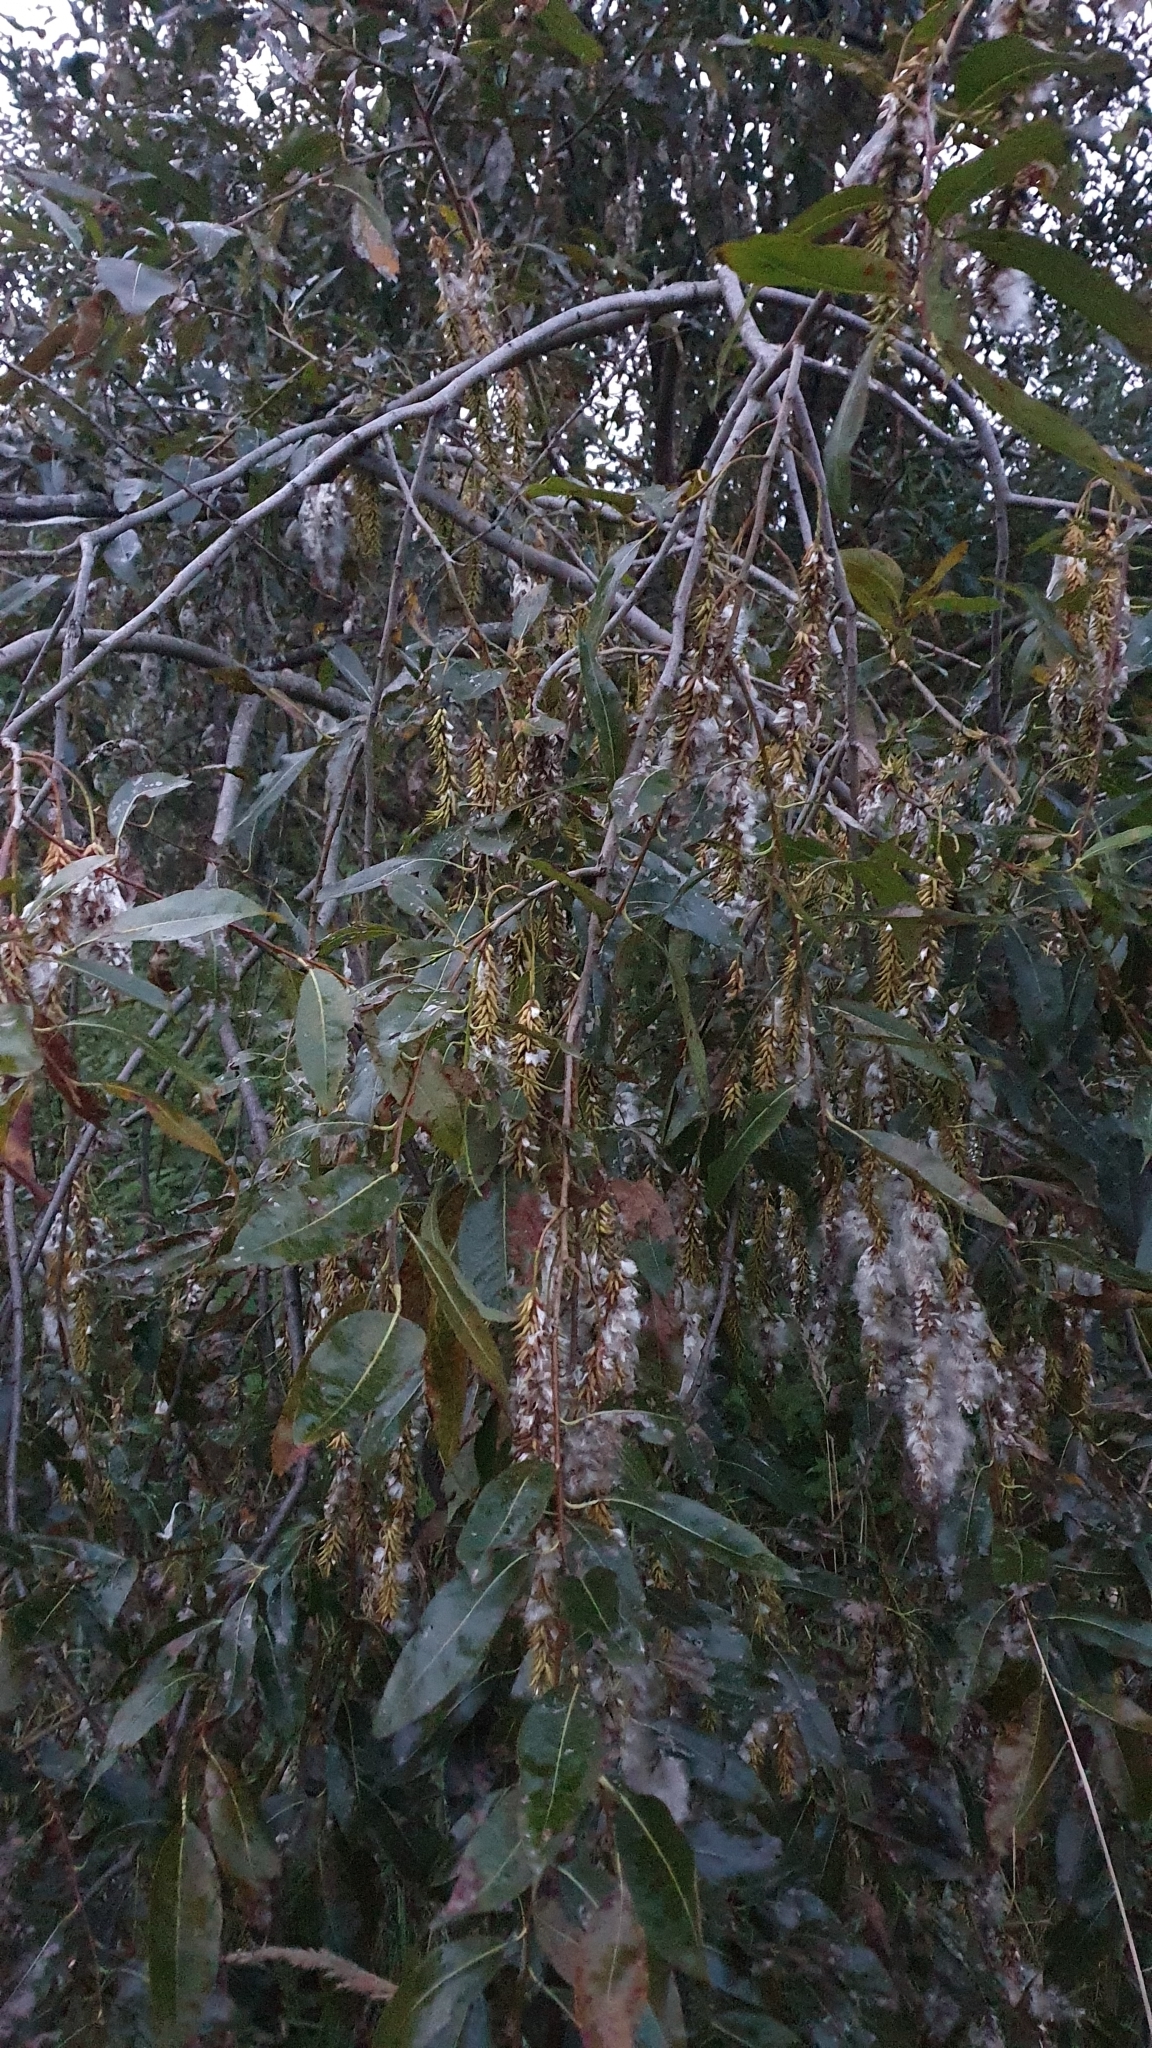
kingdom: Plantae
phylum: Tracheophyta
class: Magnoliopsida
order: Malpighiales
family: Salicaceae
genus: Salix
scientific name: Salix pentandra
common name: Bay willow
